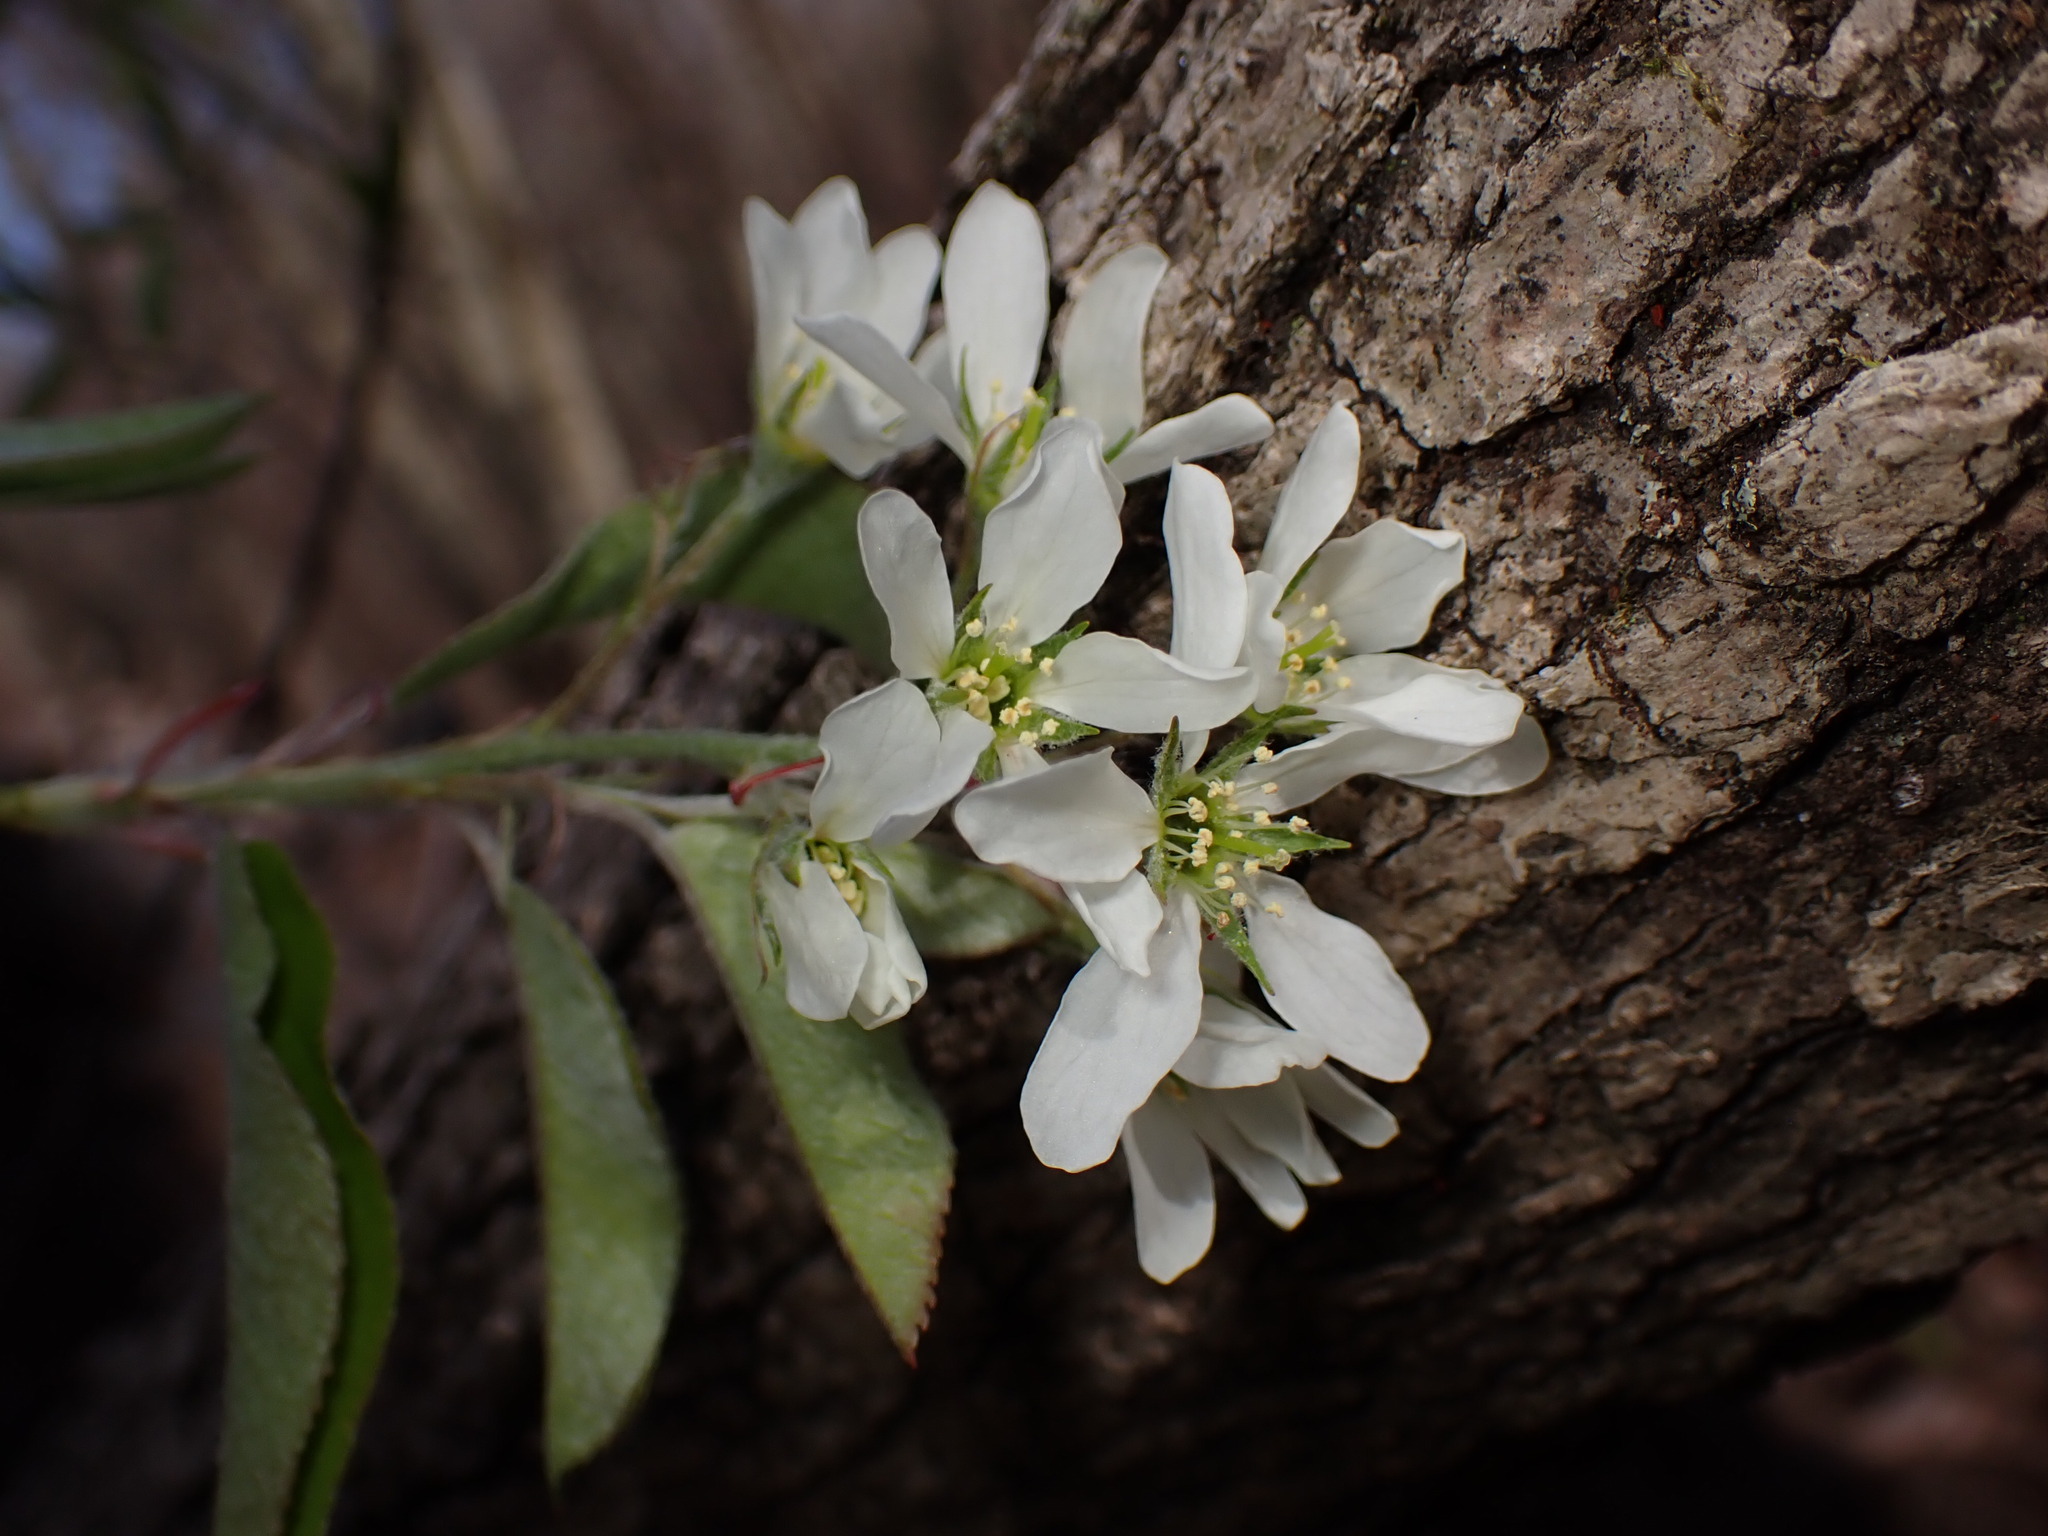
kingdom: Plantae
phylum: Tracheophyta
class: Magnoliopsida
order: Rosales
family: Rosaceae
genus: Amelanchier
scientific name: Amelanchier canadensis
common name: Thicket serviceberry
